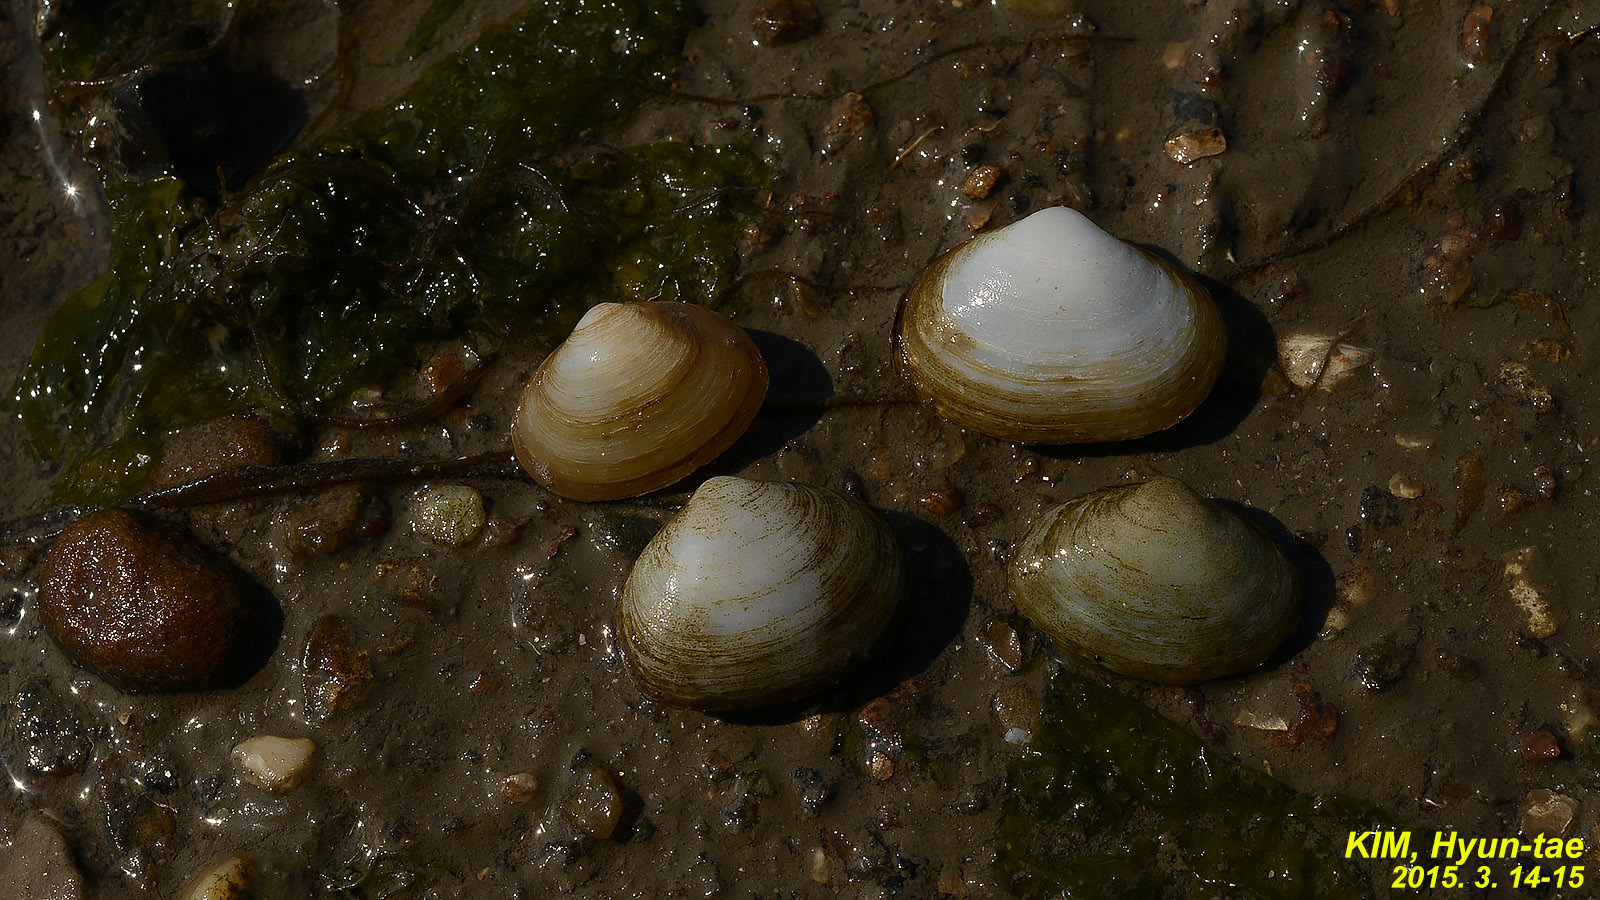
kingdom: Animalia
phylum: Mollusca
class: Bivalvia
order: Venerida
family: Mesodesmatidae
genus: Coecella
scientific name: Coecella chinensis
